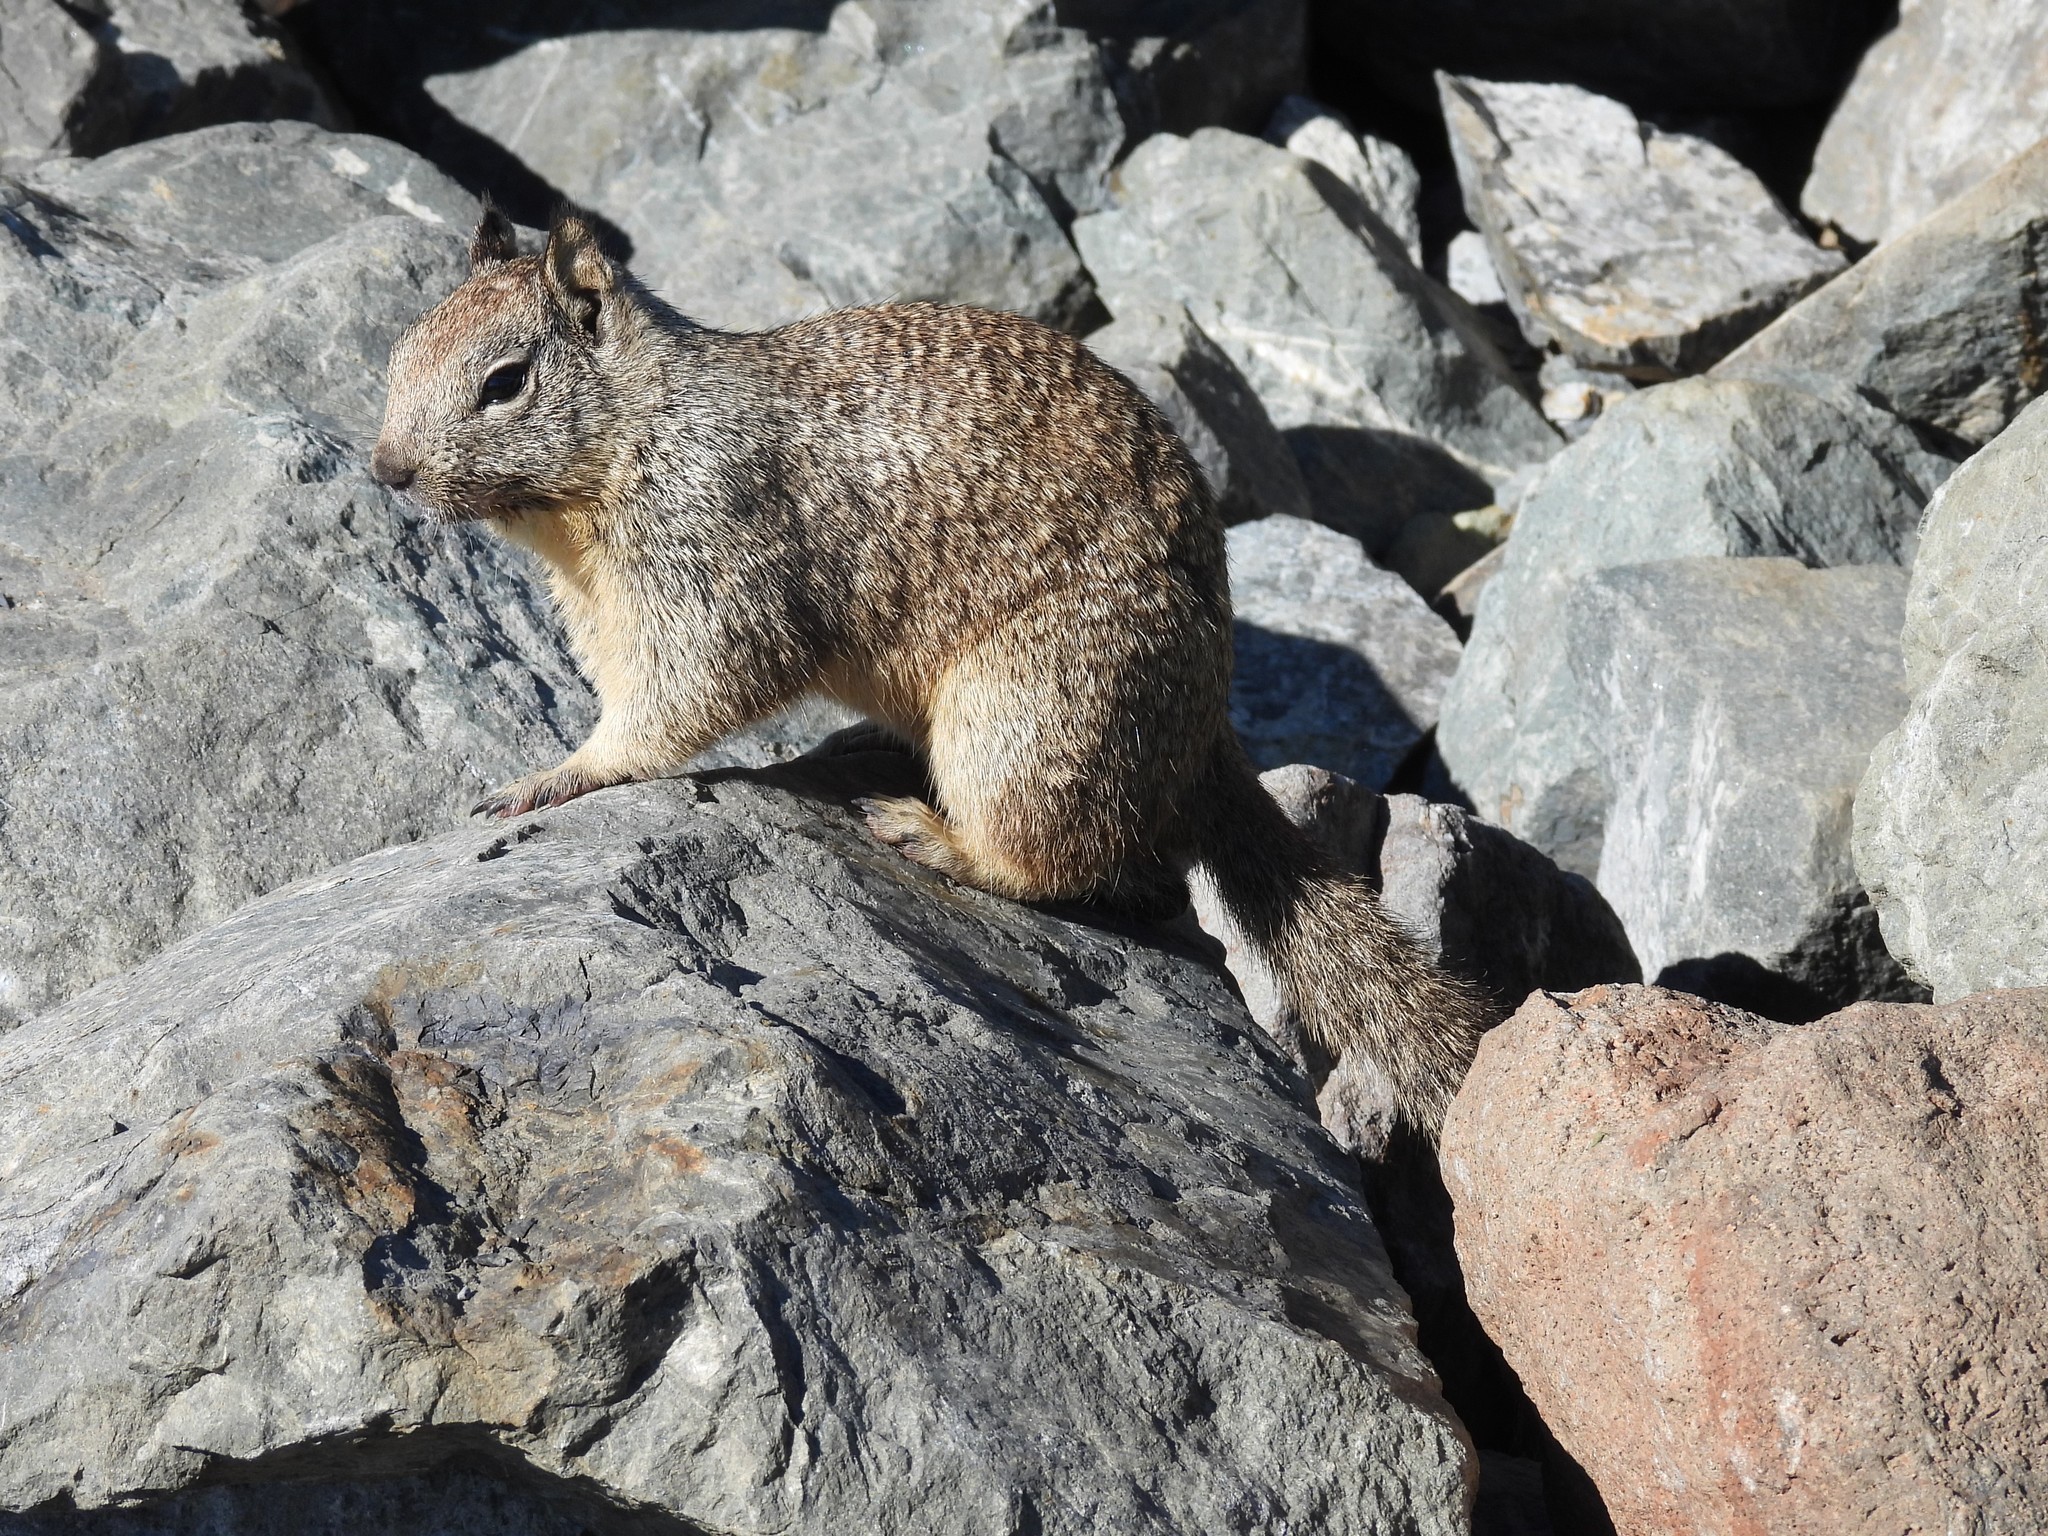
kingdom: Animalia
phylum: Chordata
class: Mammalia
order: Rodentia
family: Sciuridae
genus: Otospermophilus
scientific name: Otospermophilus beecheyi
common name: California ground squirrel
